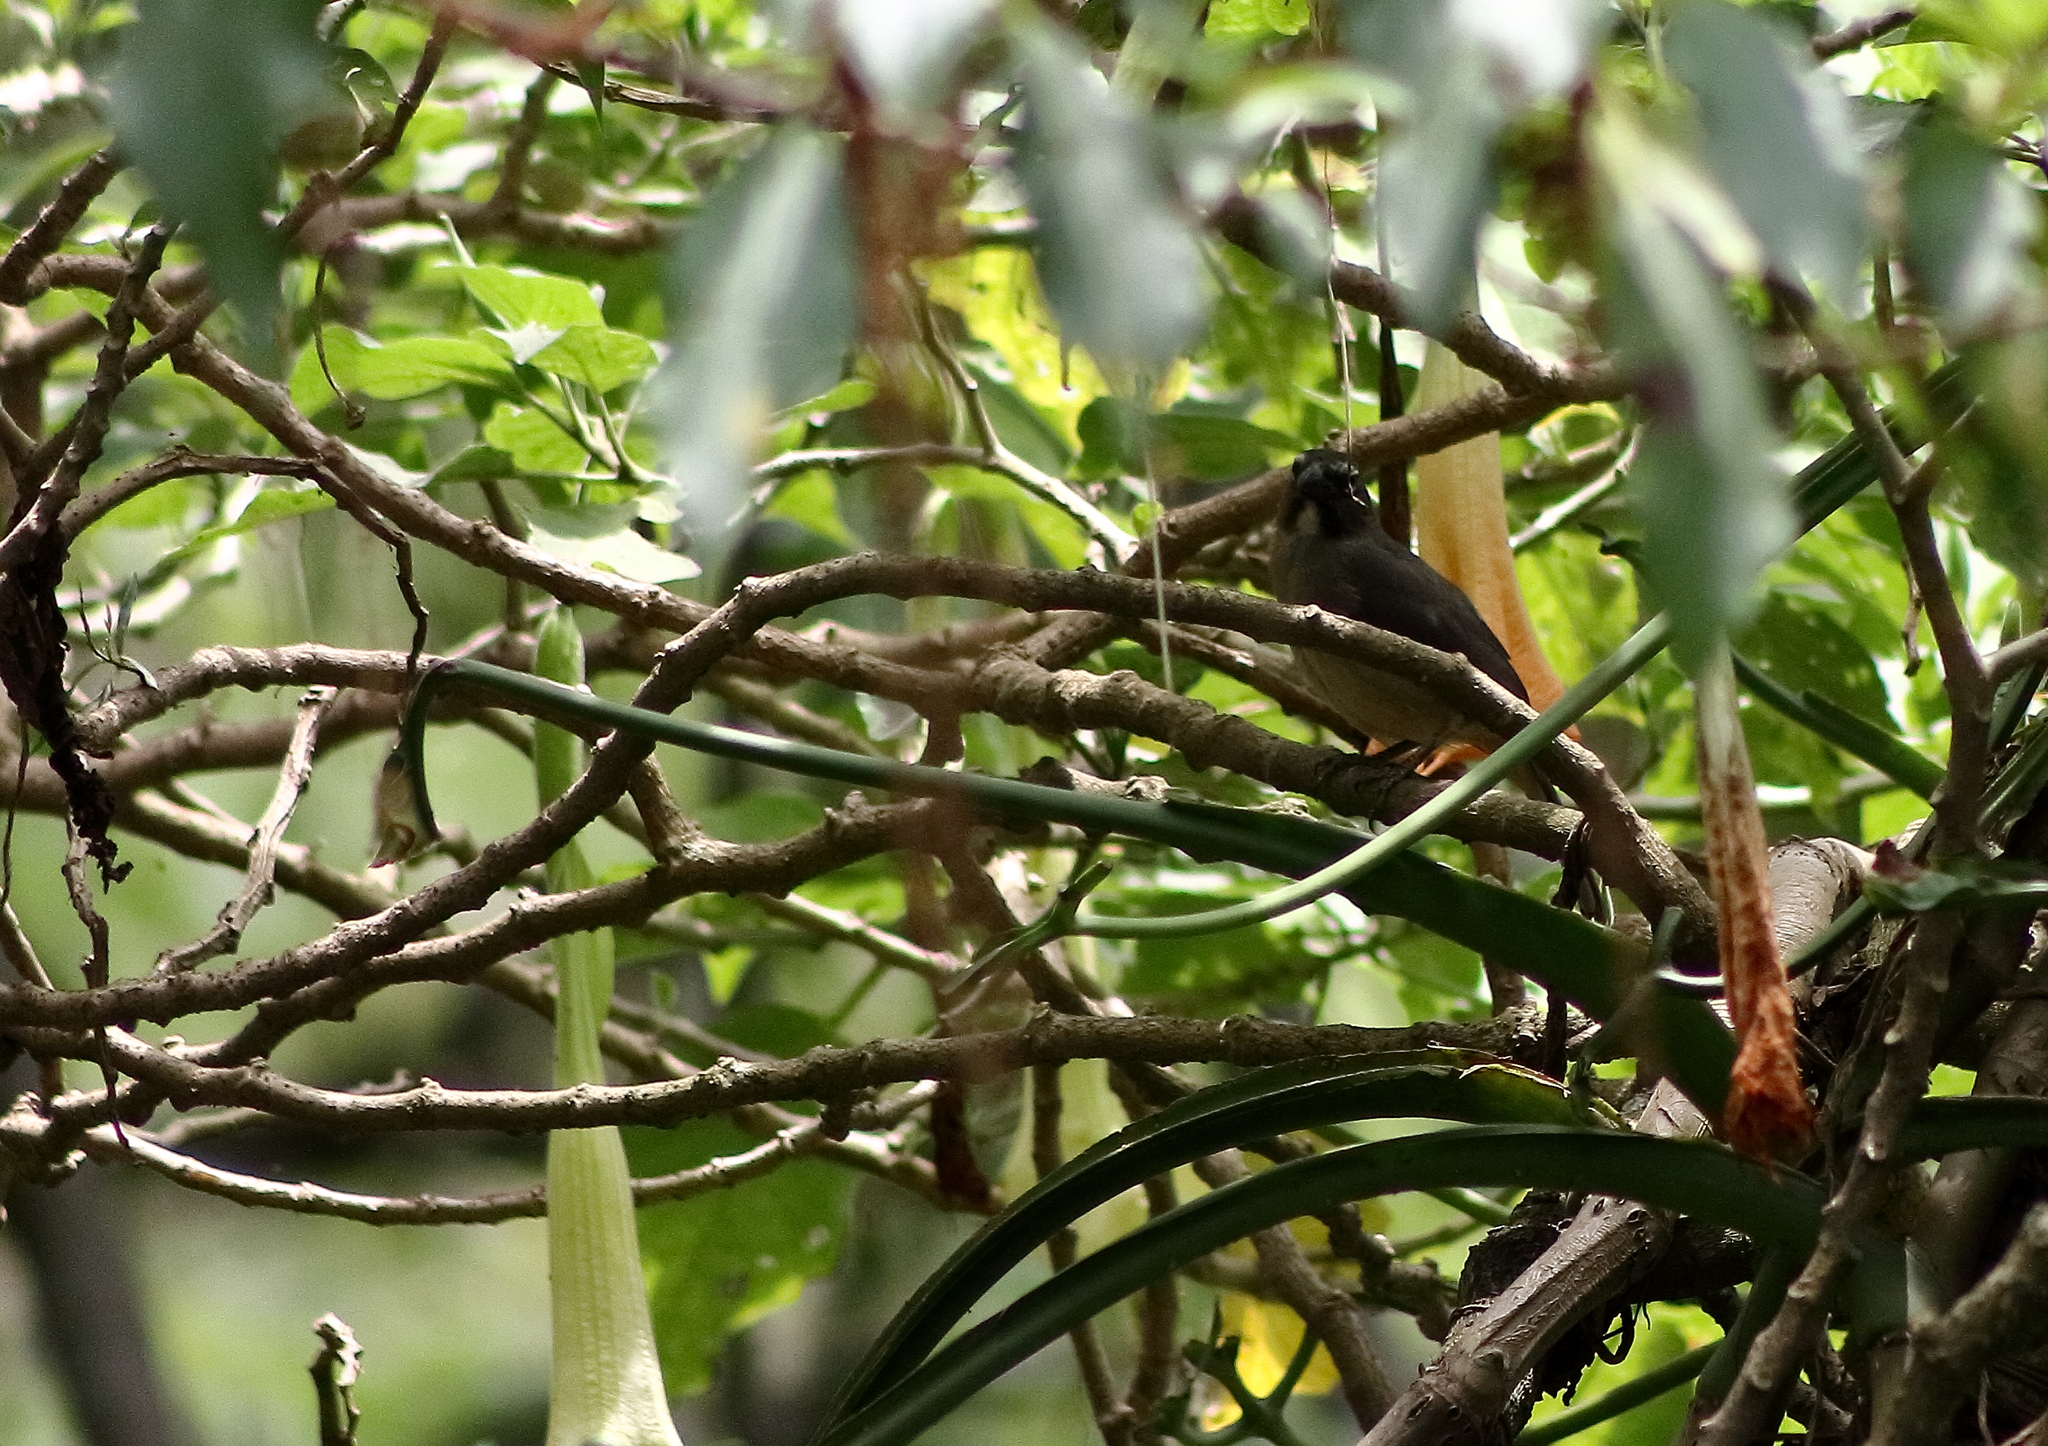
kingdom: Animalia
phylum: Chordata
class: Aves
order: Passeriformes
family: Thraupidae
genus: Saltator
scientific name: Saltator olivascens
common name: Caribbean grey saltator
